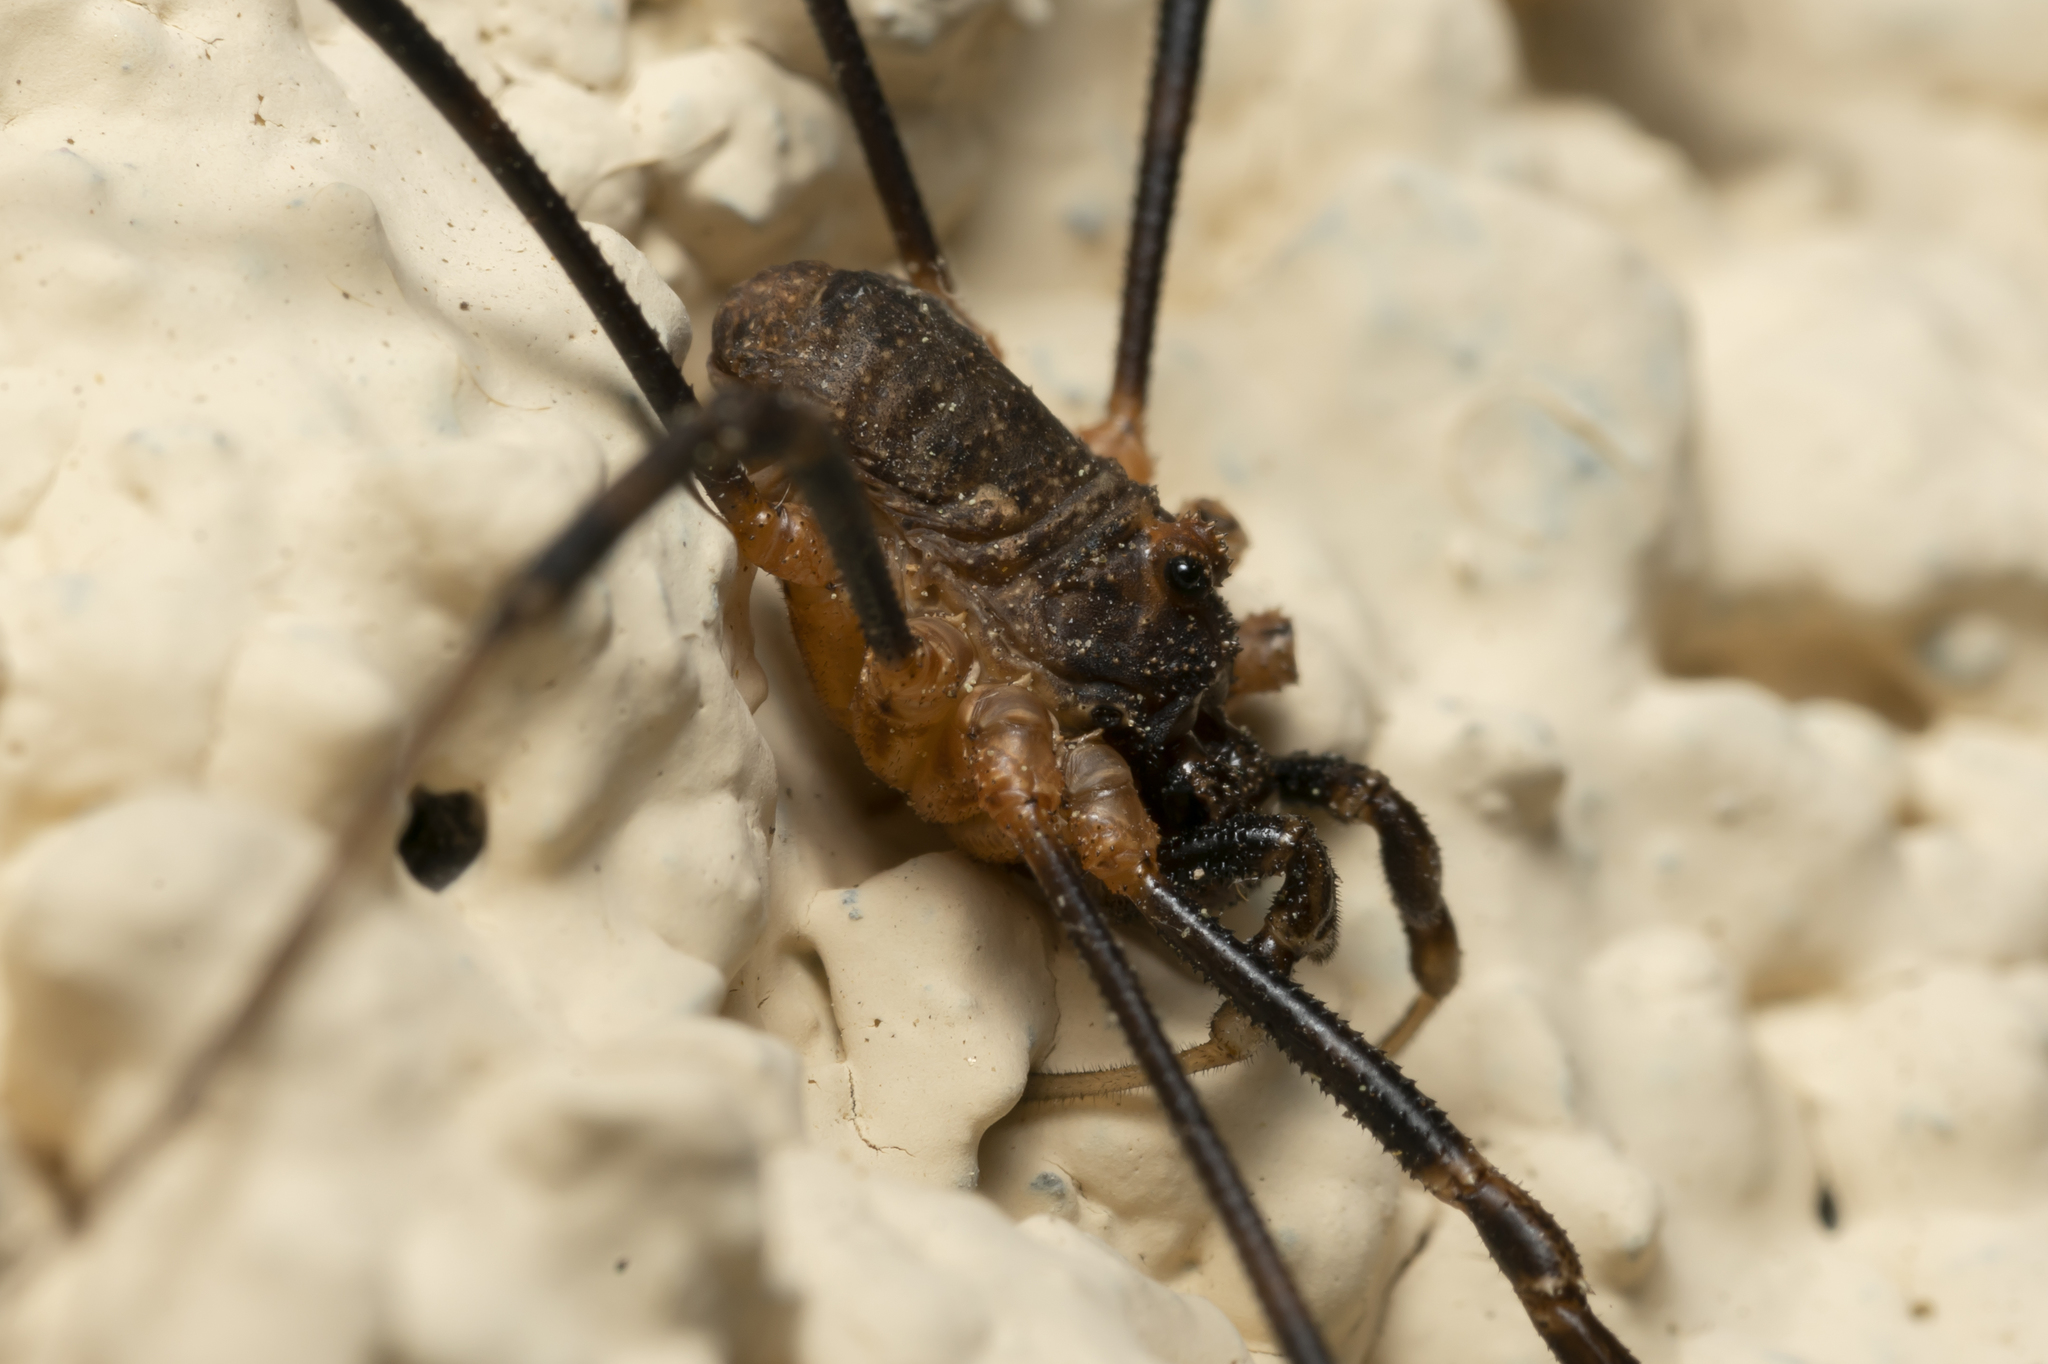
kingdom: Animalia
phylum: Arthropoda
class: Arachnida
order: Opiliones
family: Phalangiidae
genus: Rafalskia
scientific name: Rafalskia cretica
